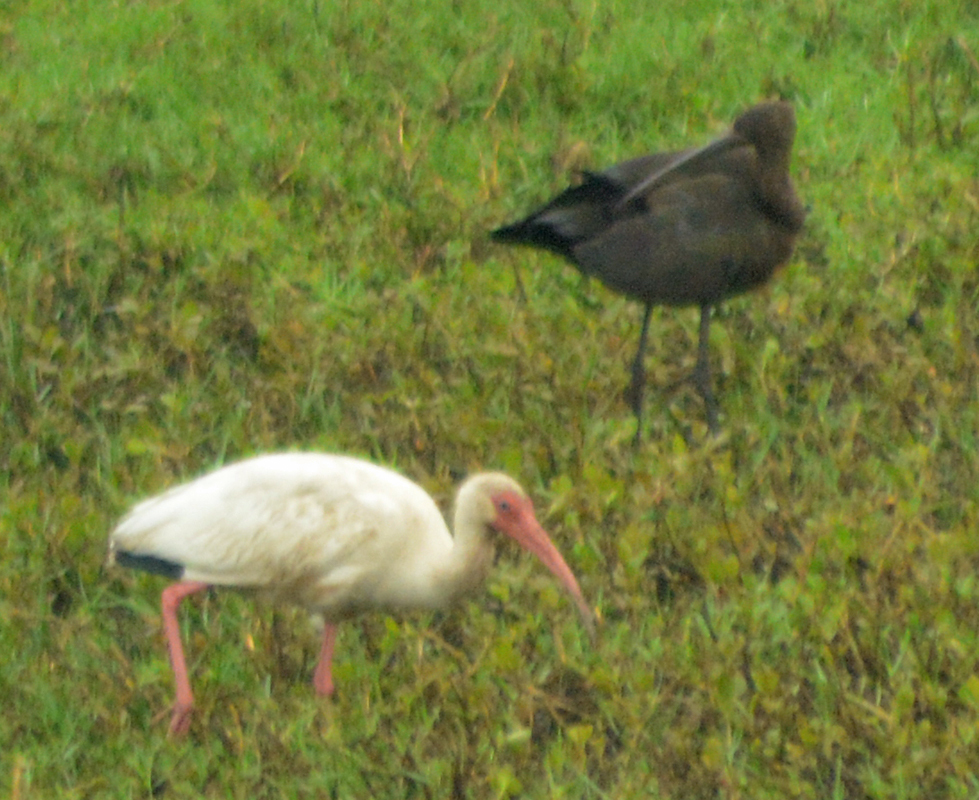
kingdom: Animalia
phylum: Chordata
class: Aves
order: Pelecaniformes
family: Threskiornithidae
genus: Eudocimus
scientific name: Eudocimus albus
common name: White ibis
